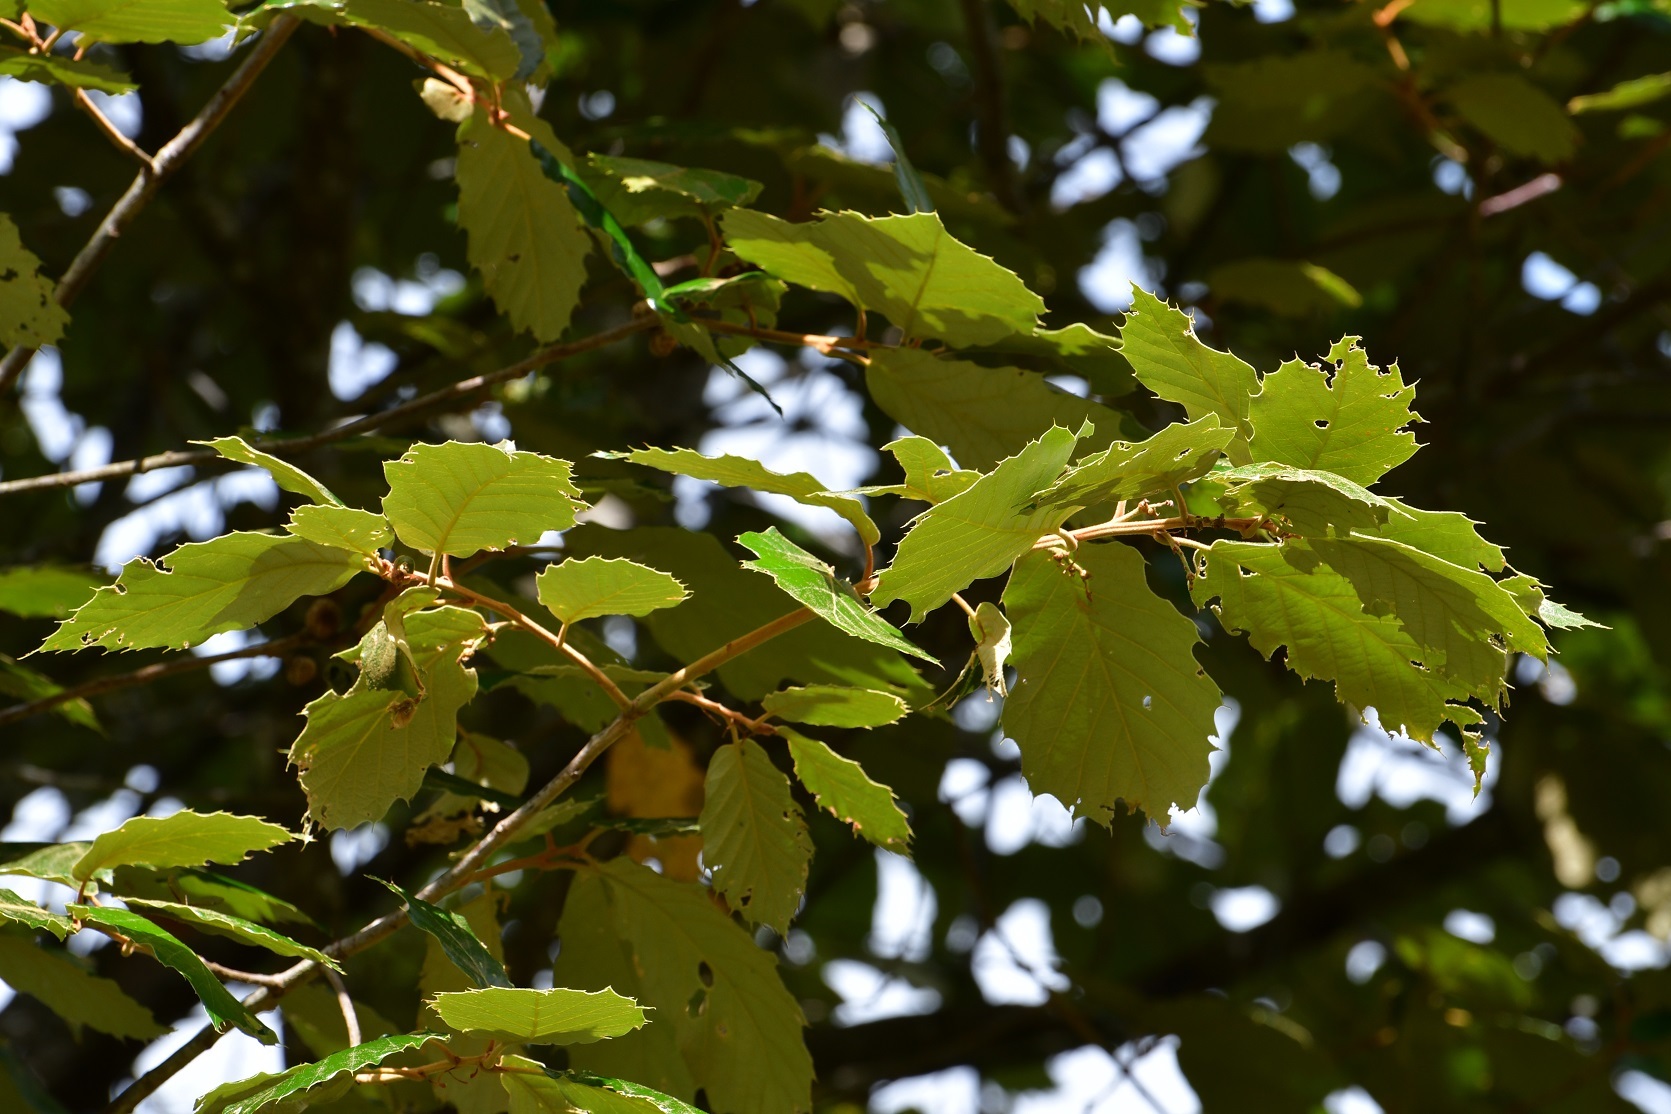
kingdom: Plantae
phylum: Tracheophyta
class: Magnoliopsida
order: Fagales
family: Fagaceae
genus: Quercus
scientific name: Quercus calophylla
